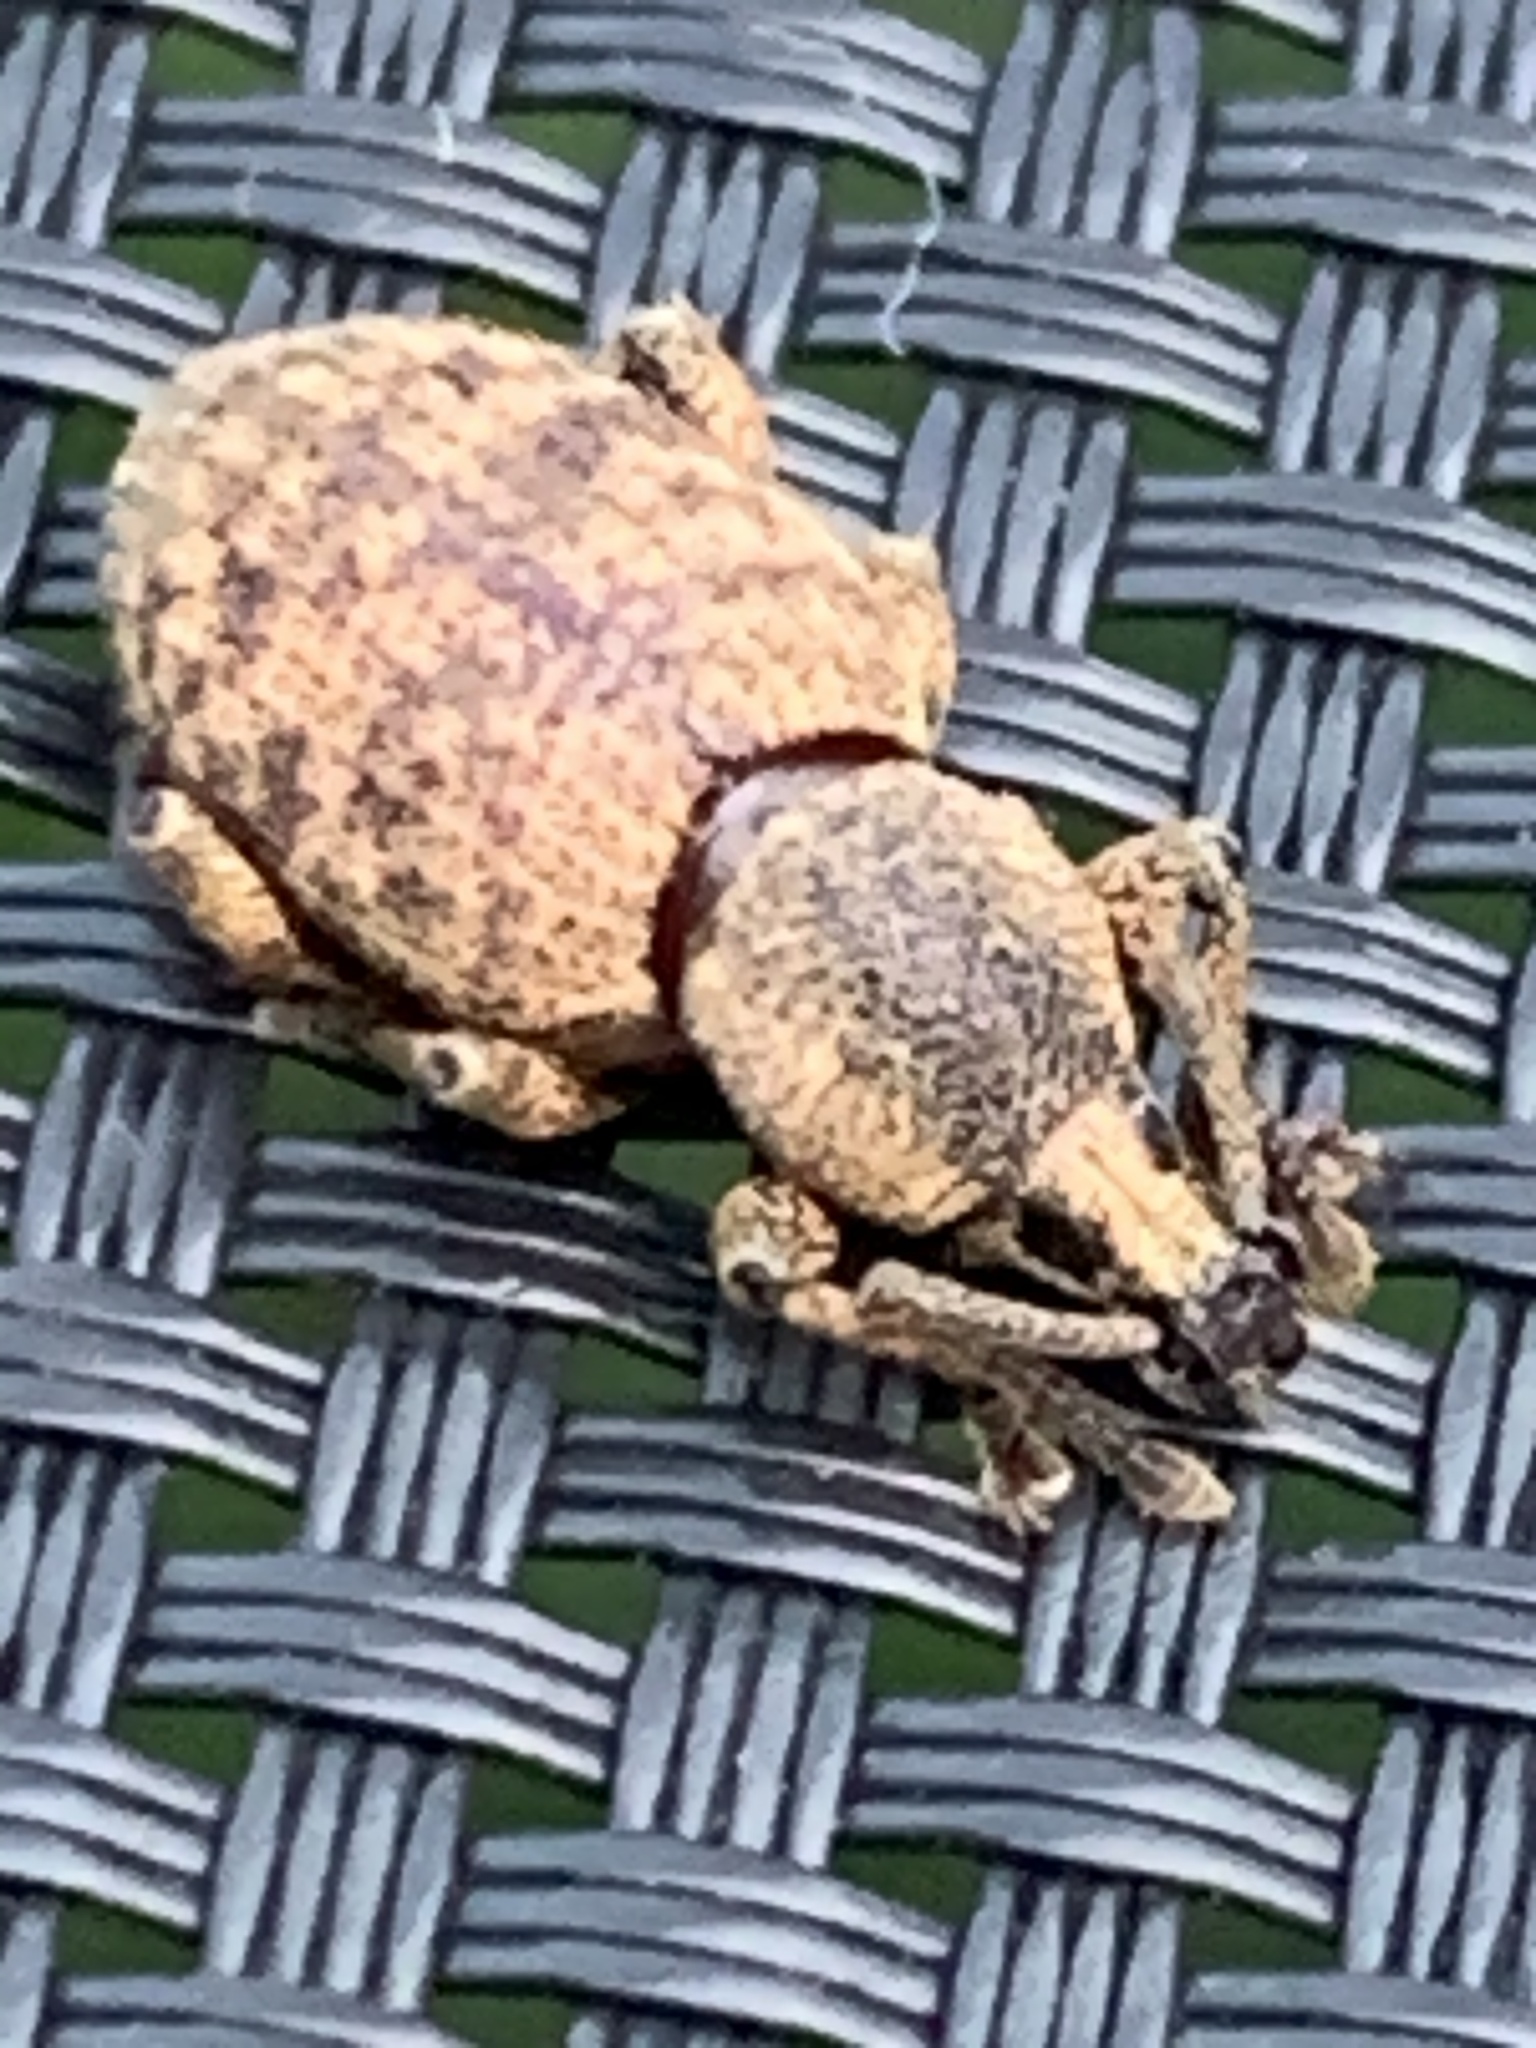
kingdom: Animalia
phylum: Arthropoda
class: Insecta
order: Coleoptera
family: Curculionidae
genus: Otiorhynchus
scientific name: Otiorhynchus singularis
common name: Clay-coloured weevil
